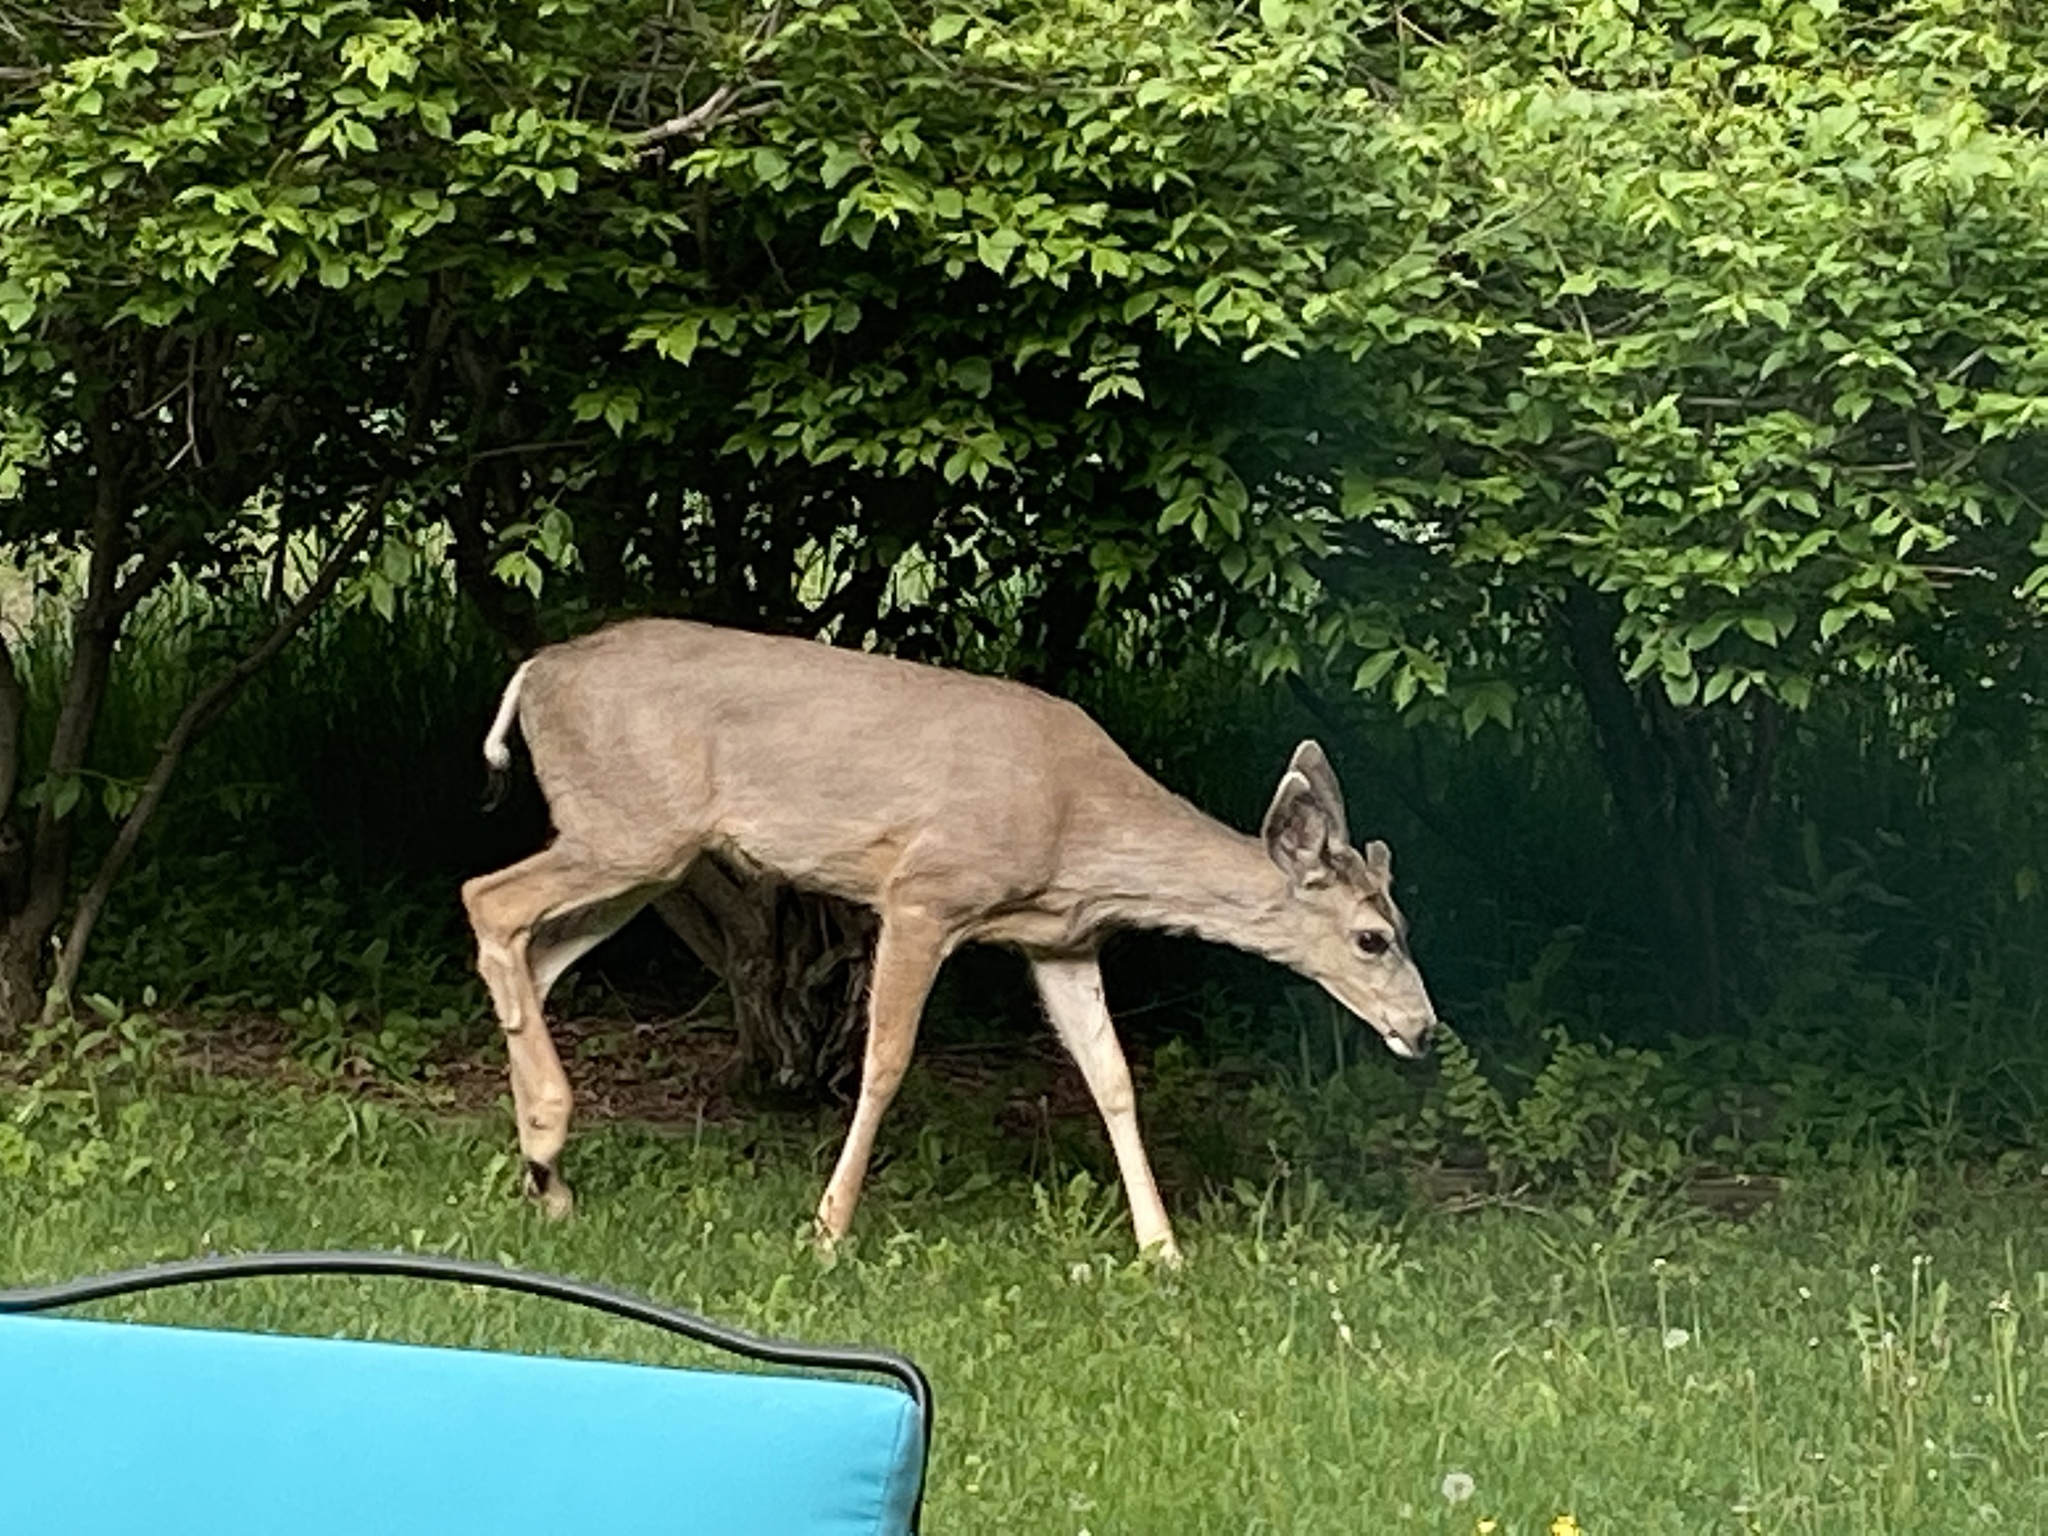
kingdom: Animalia
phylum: Chordata
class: Mammalia
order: Artiodactyla
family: Cervidae
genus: Odocoileus
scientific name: Odocoileus hemionus
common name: Mule deer
